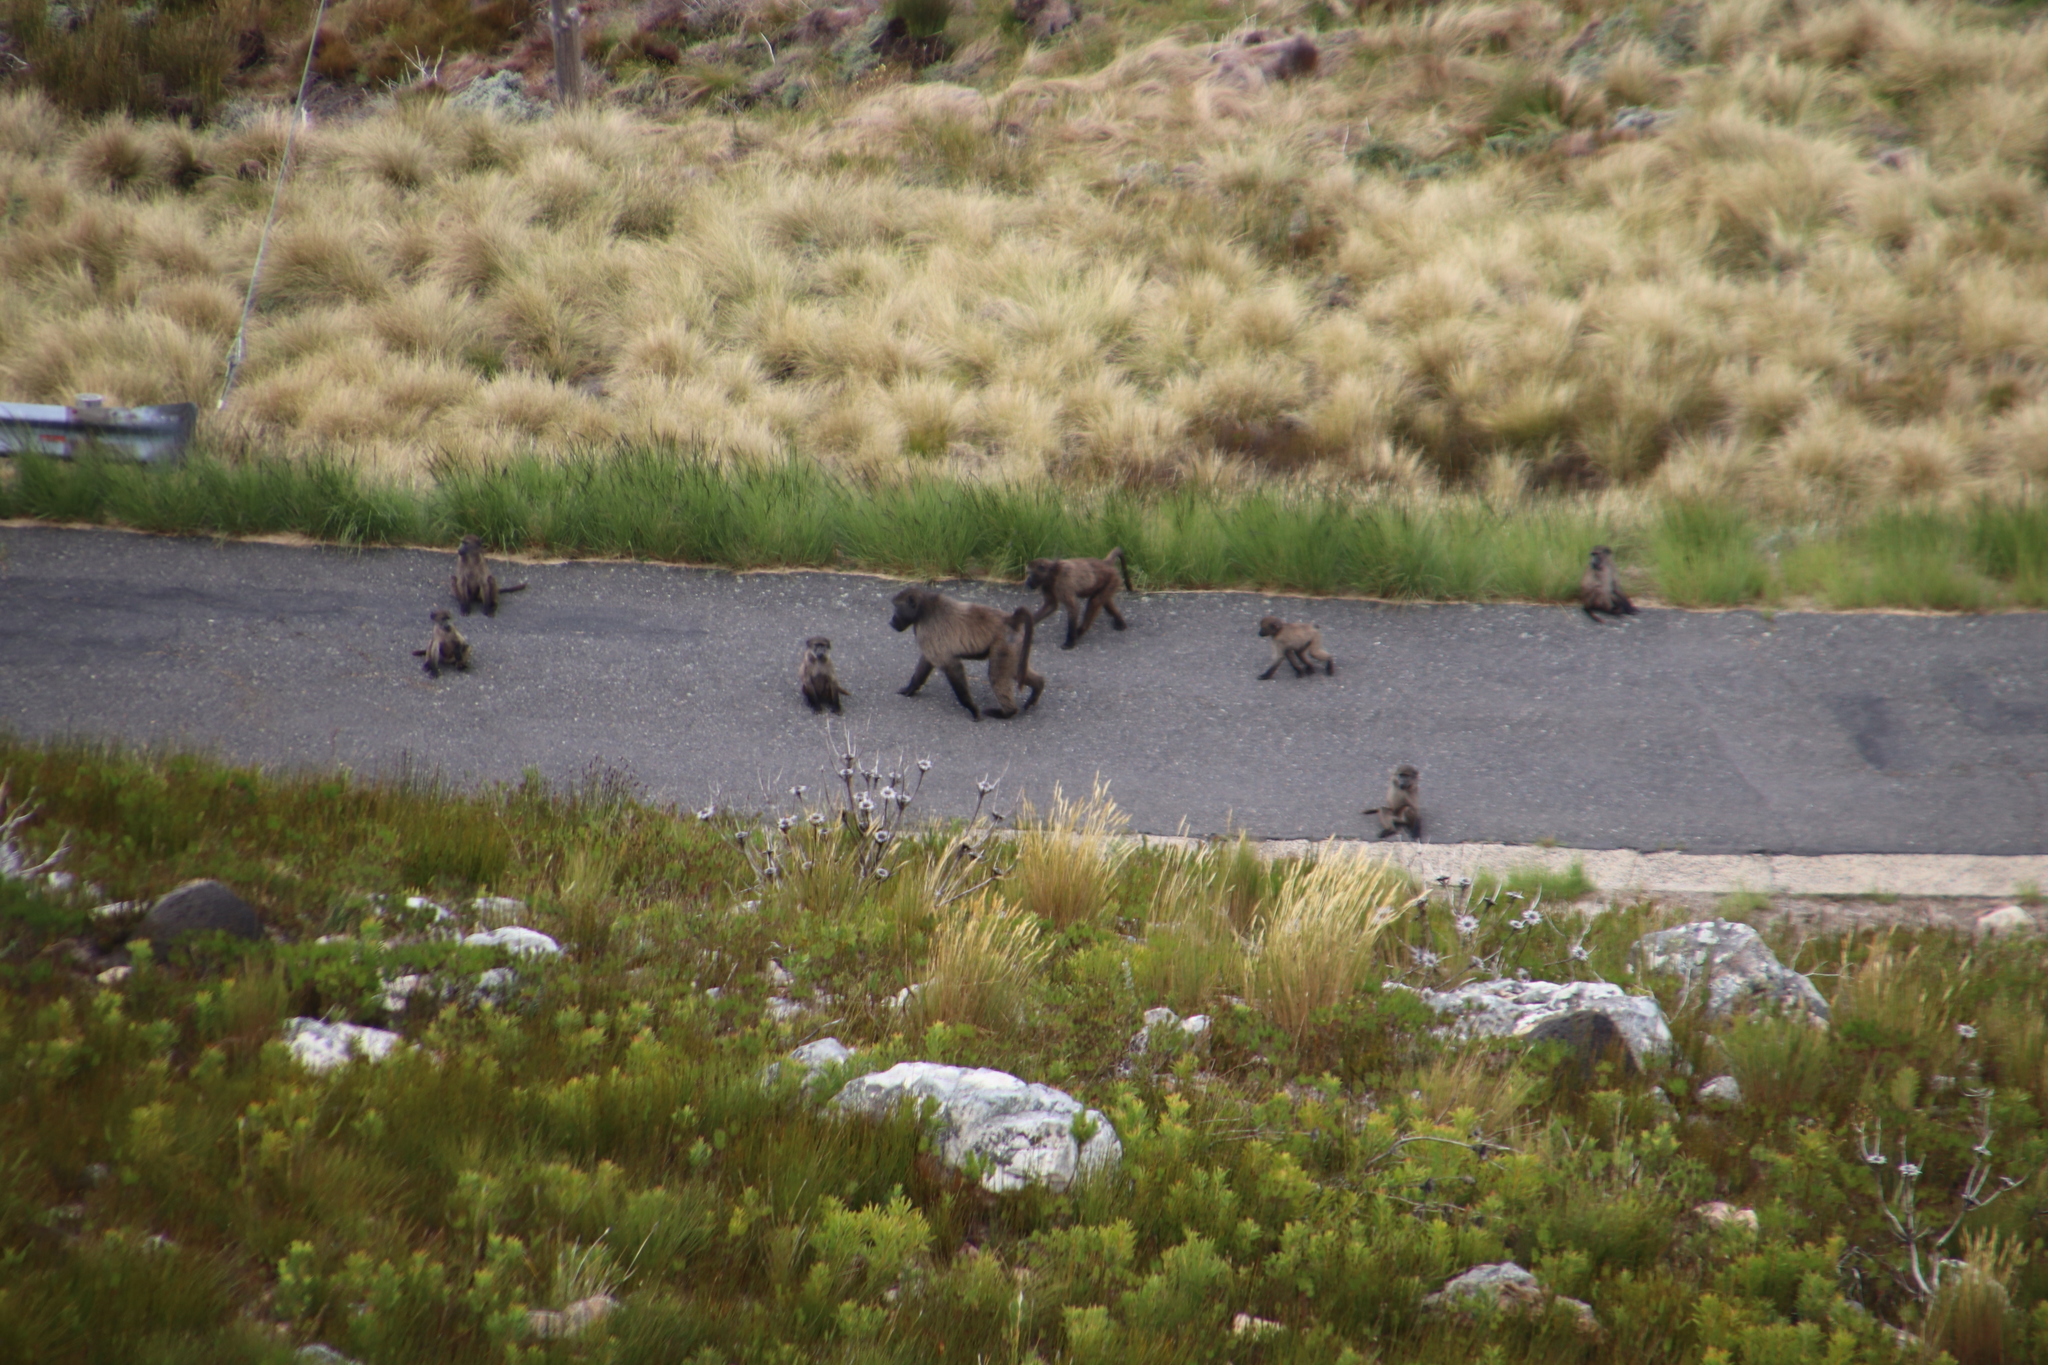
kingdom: Animalia
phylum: Chordata
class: Mammalia
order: Primates
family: Cercopithecidae
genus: Papio
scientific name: Papio ursinus
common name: Chacma baboon
